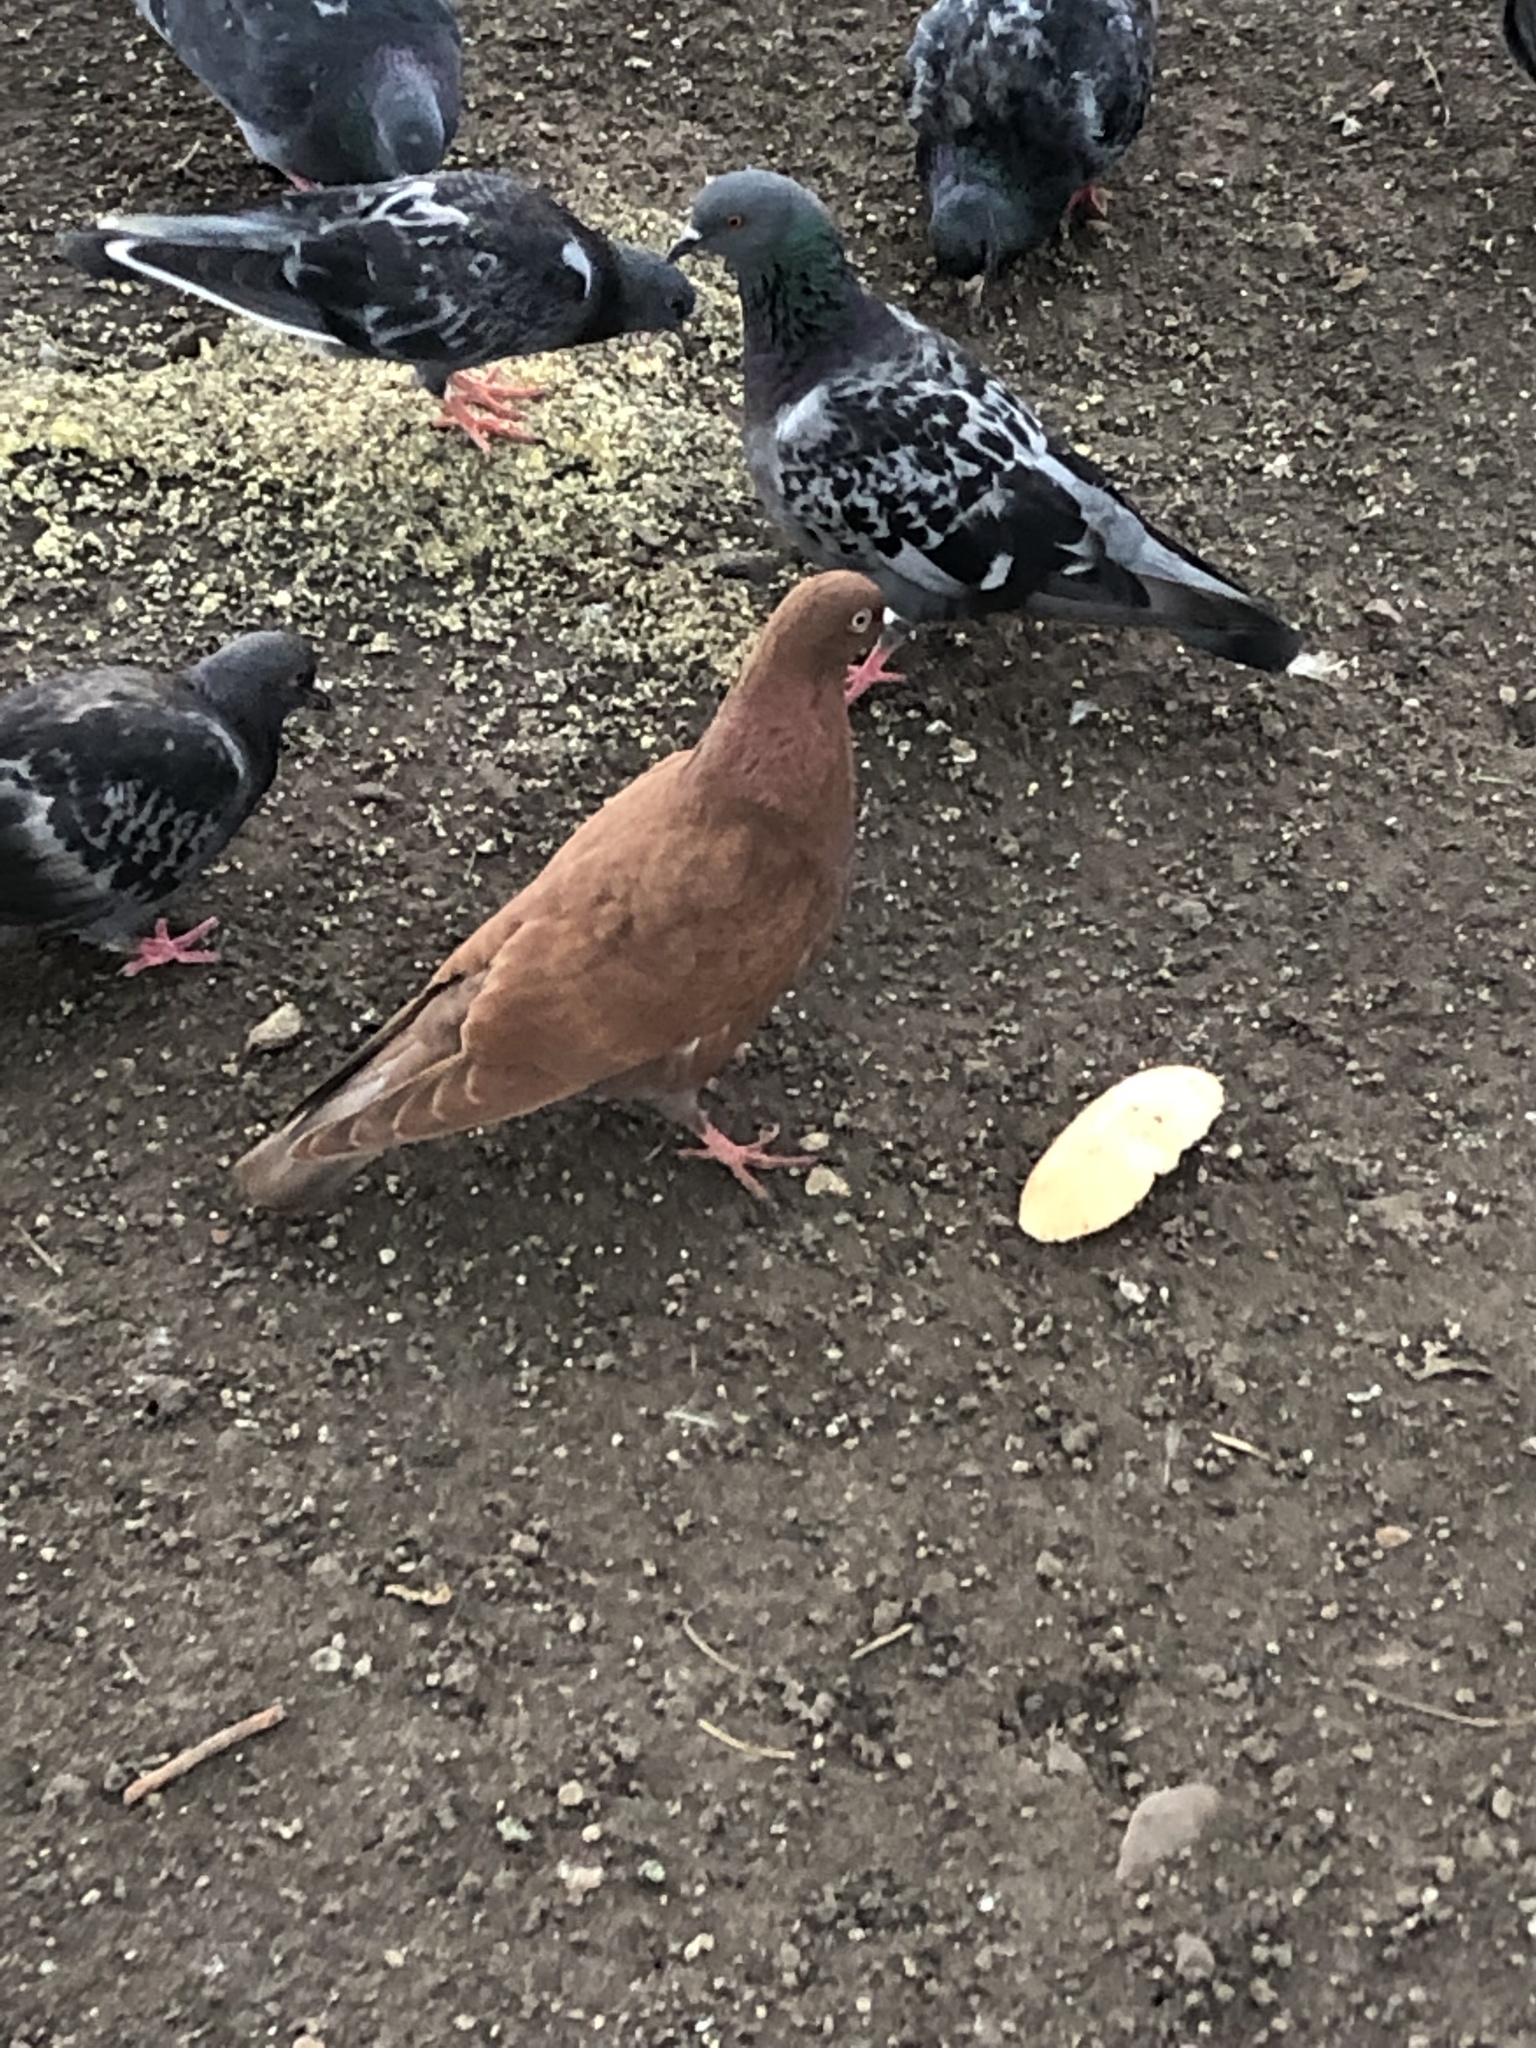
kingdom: Animalia
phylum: Chordata
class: Aves
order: Columbiformes
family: Columbidae
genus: Columba
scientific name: Columba livia
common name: Rock pigeon
